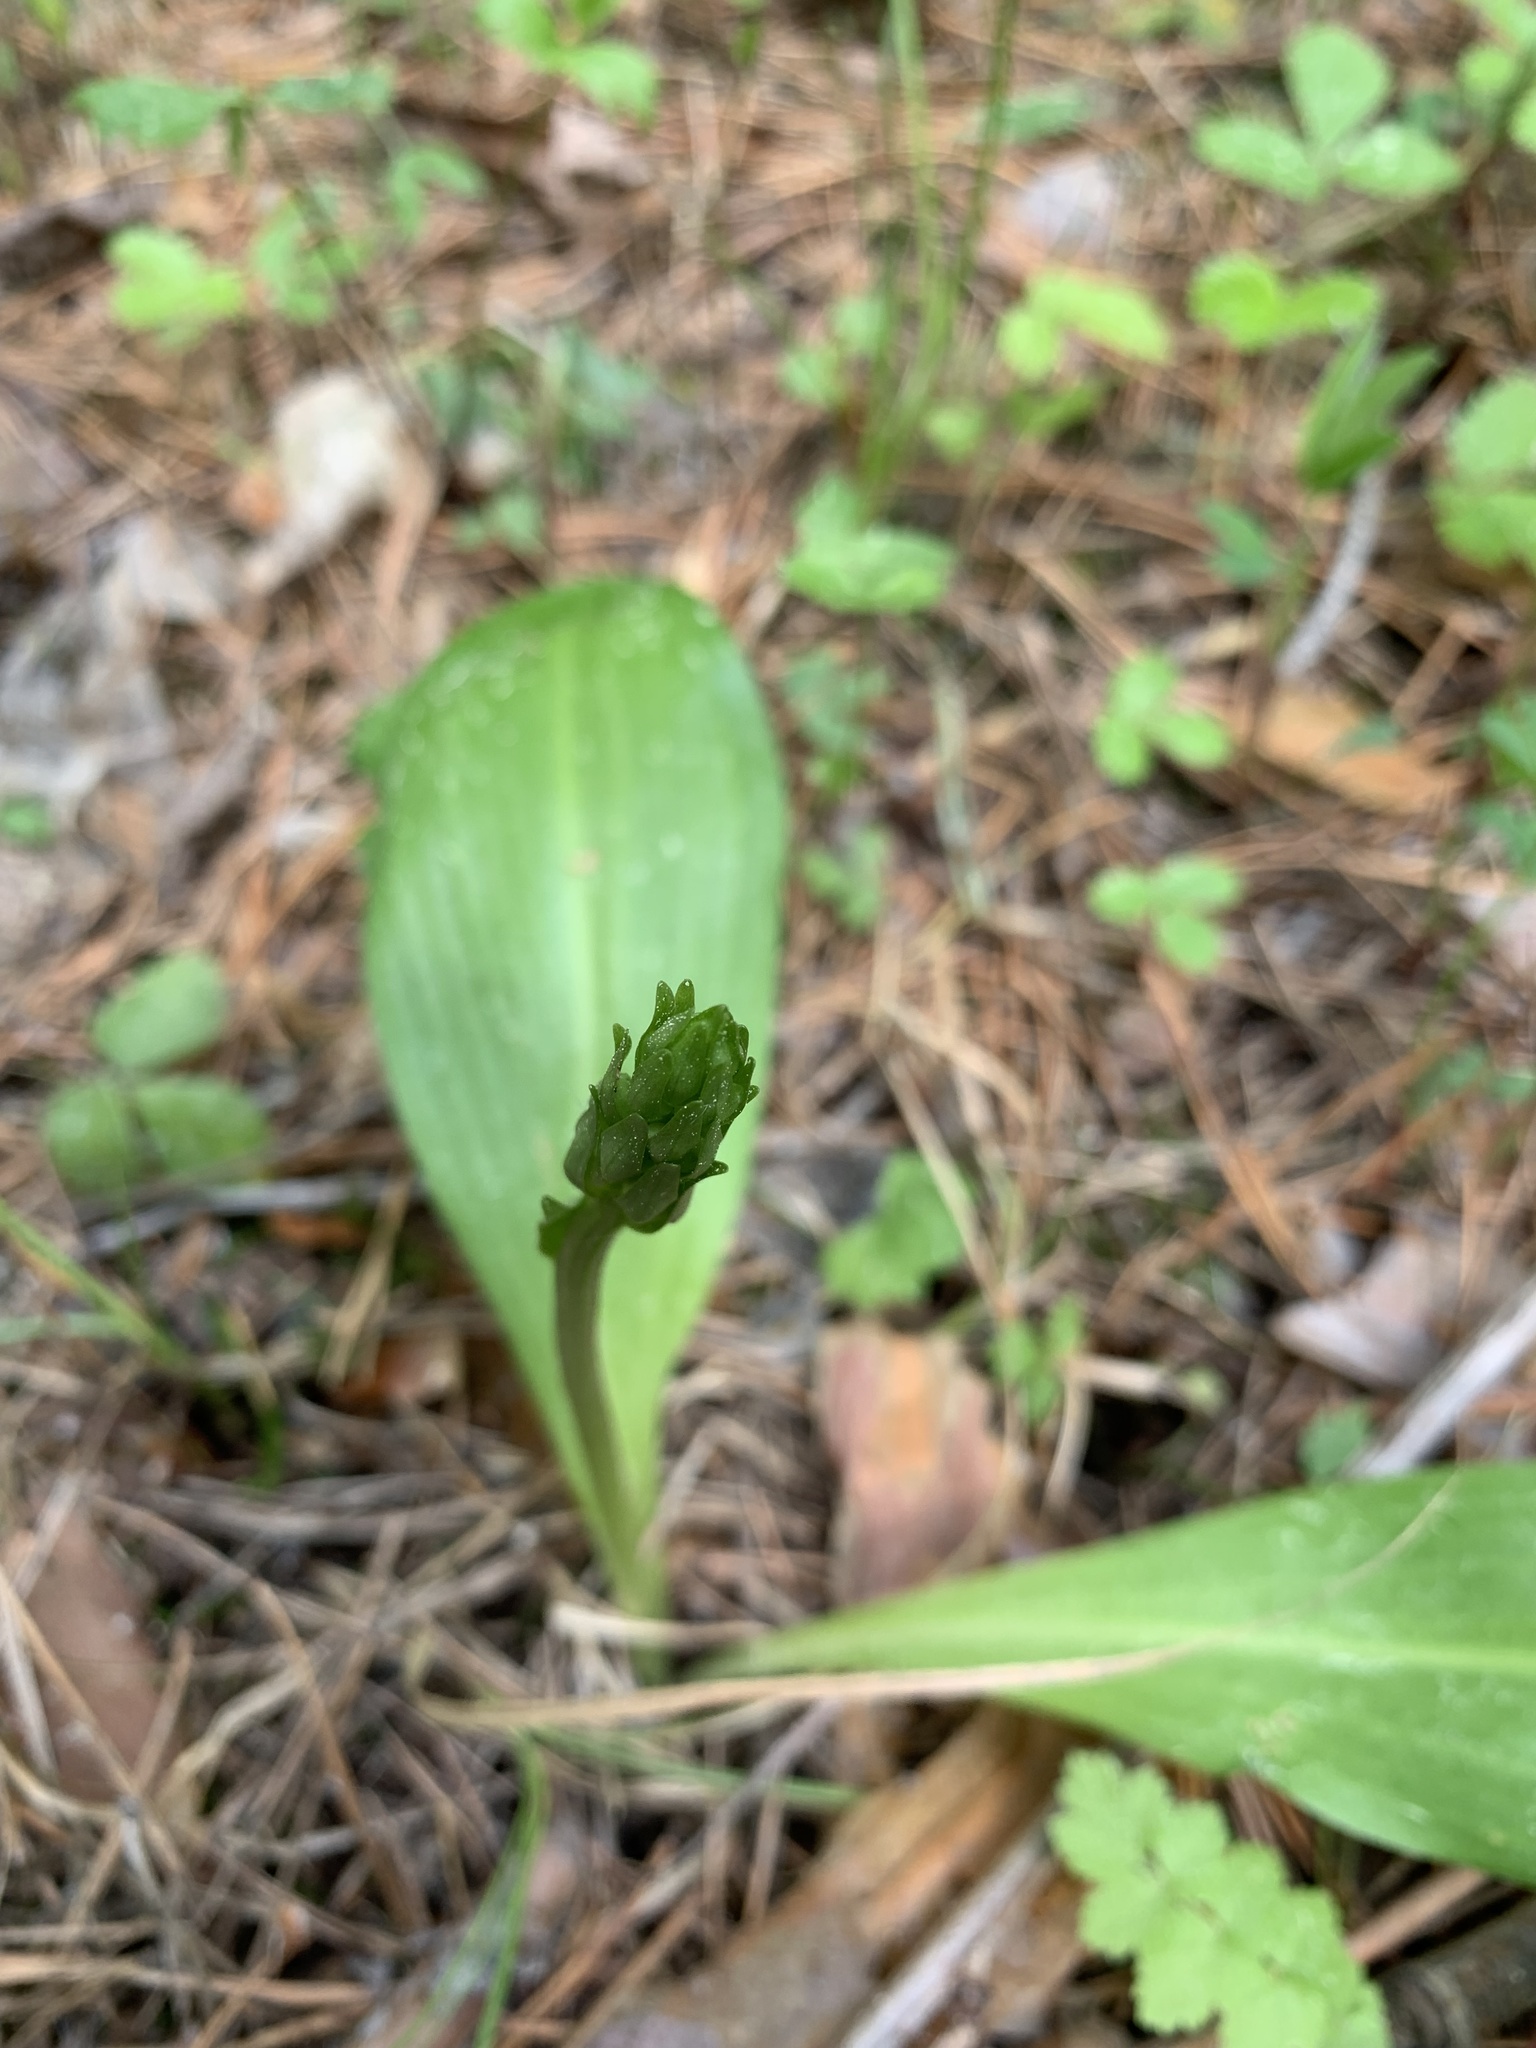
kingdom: Plantae
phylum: Tracheophyta
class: Liliopsida
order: Asparagales
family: Orchidaceae
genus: Platanthera
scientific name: Platanthera bifolia
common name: Lesser butterfly-orchid
